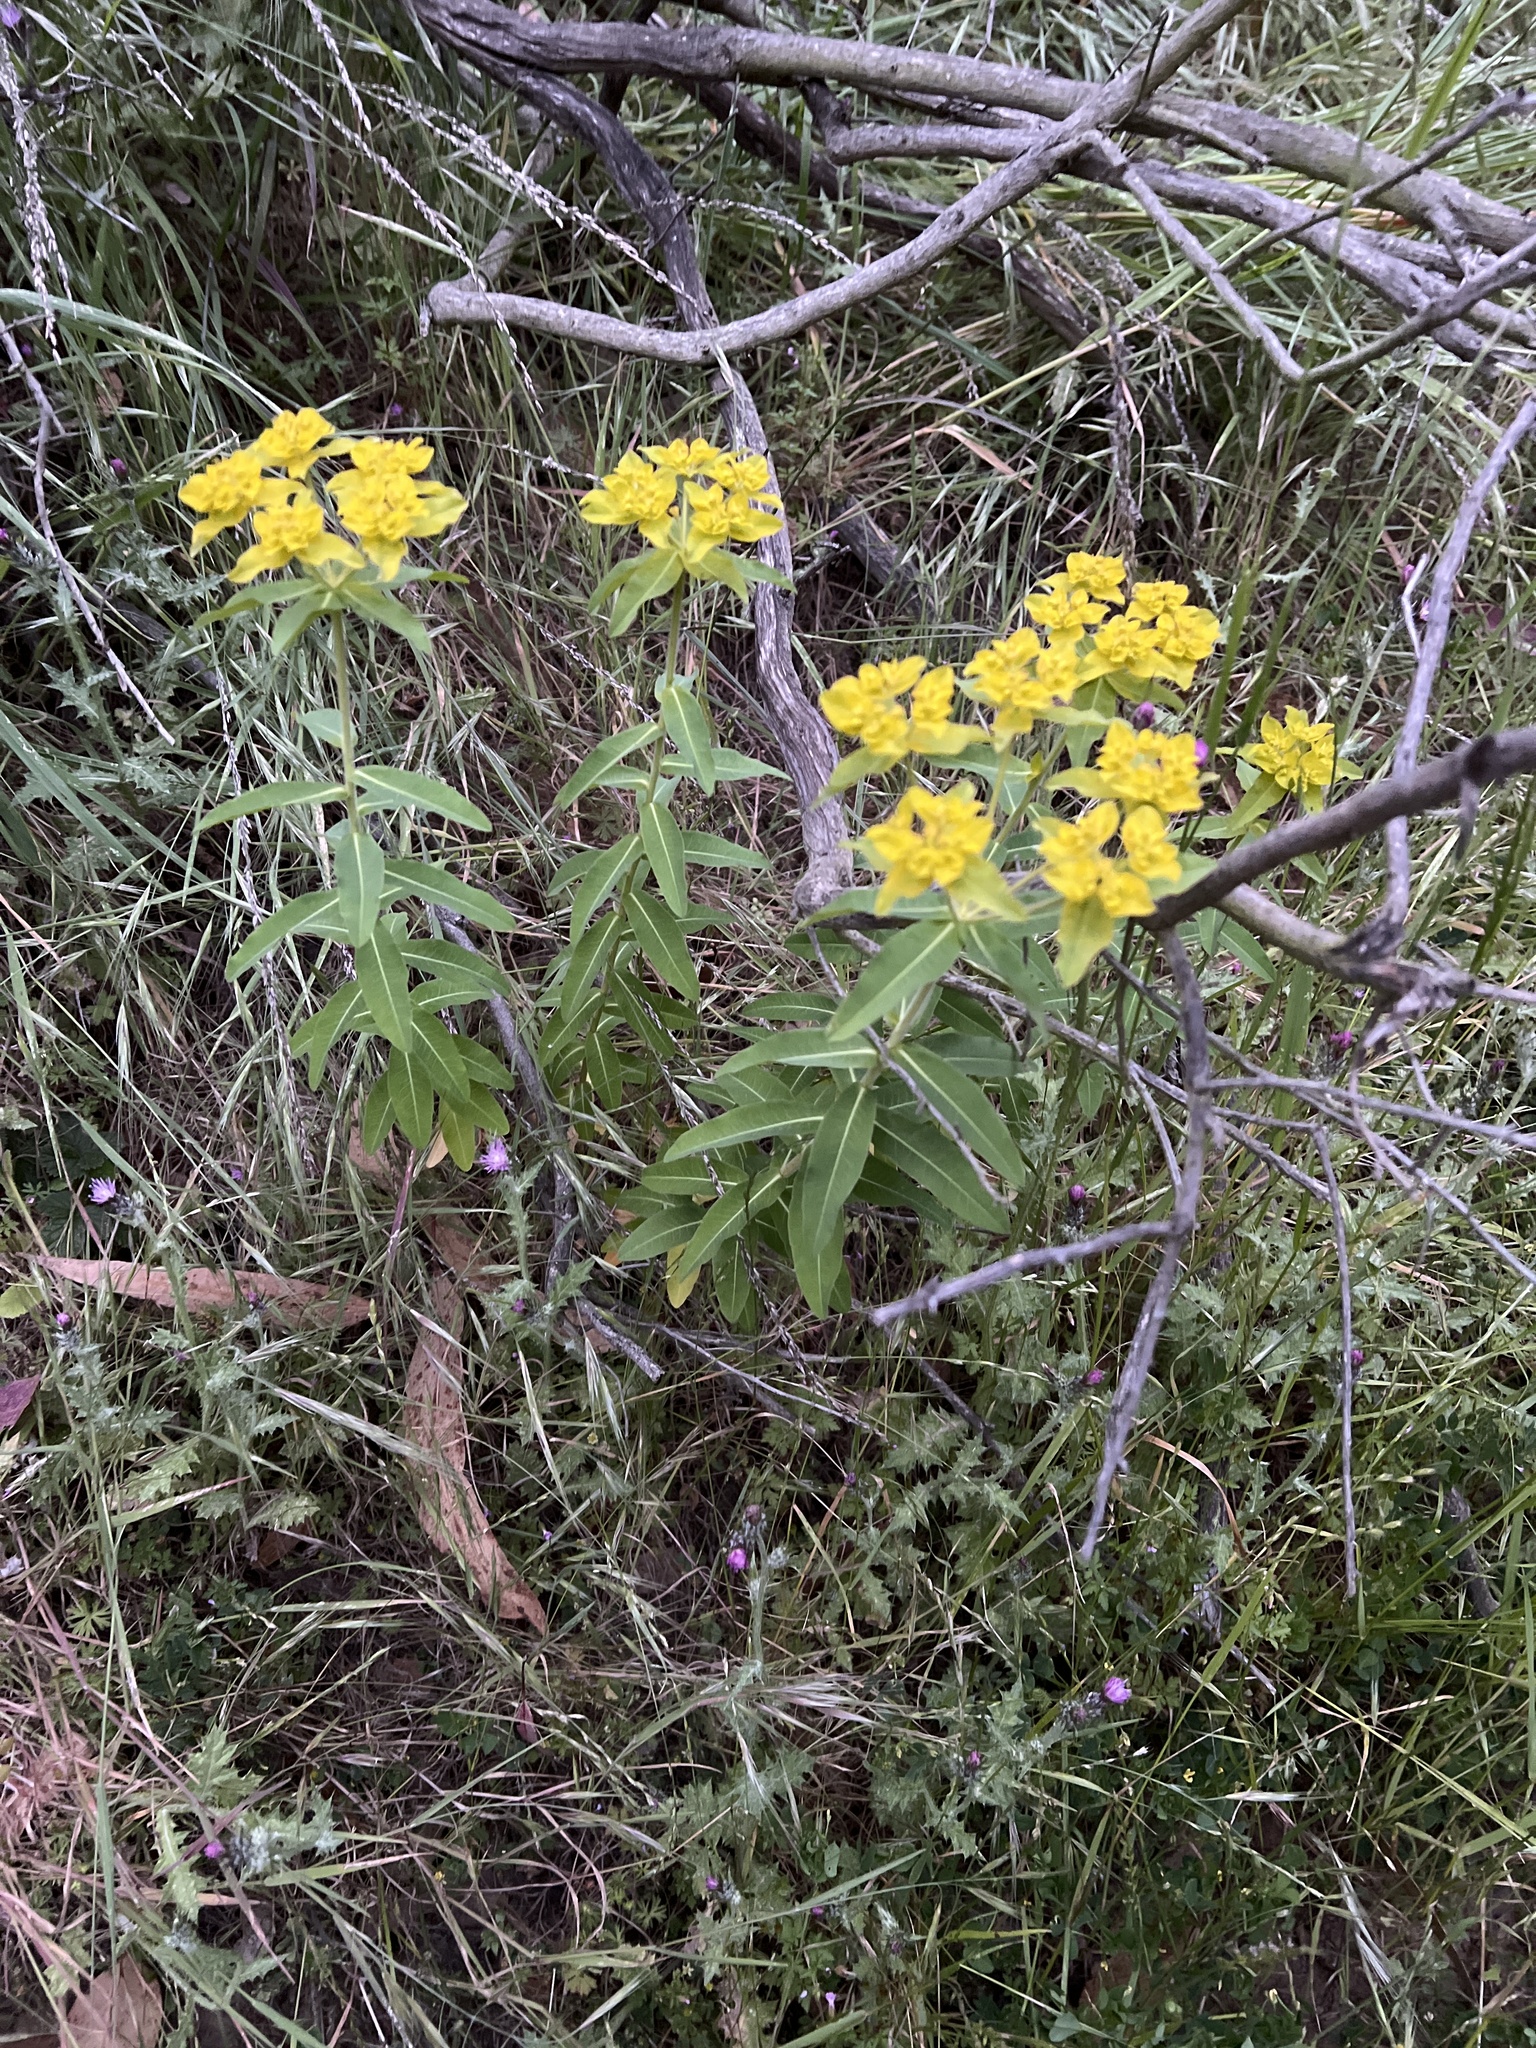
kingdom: Plantae
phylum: Tracheophyta
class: Magnoliopsida
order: Malpighiales
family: Euphorbiaceae
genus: Euphorbia
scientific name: Euphorbia oblongata
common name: Balkan spurge
